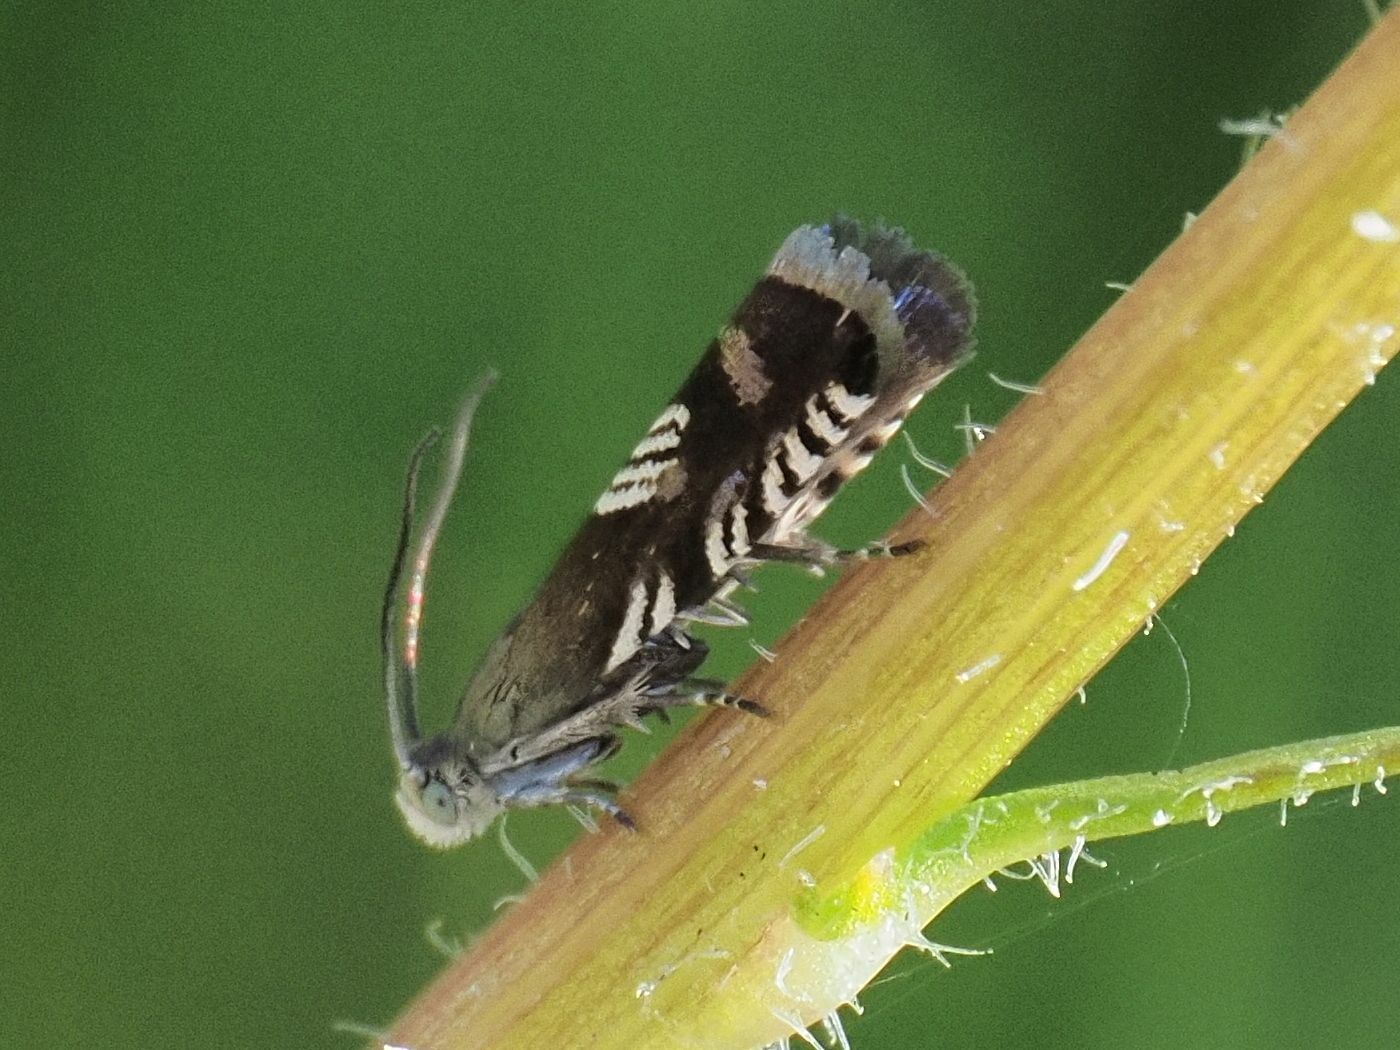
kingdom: Animalia
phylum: Arthropoda
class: Insecta
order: Lepidoptera
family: Tortricidae
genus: Grapholita
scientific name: Grapholita compositella
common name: Triple-stripe piercer
